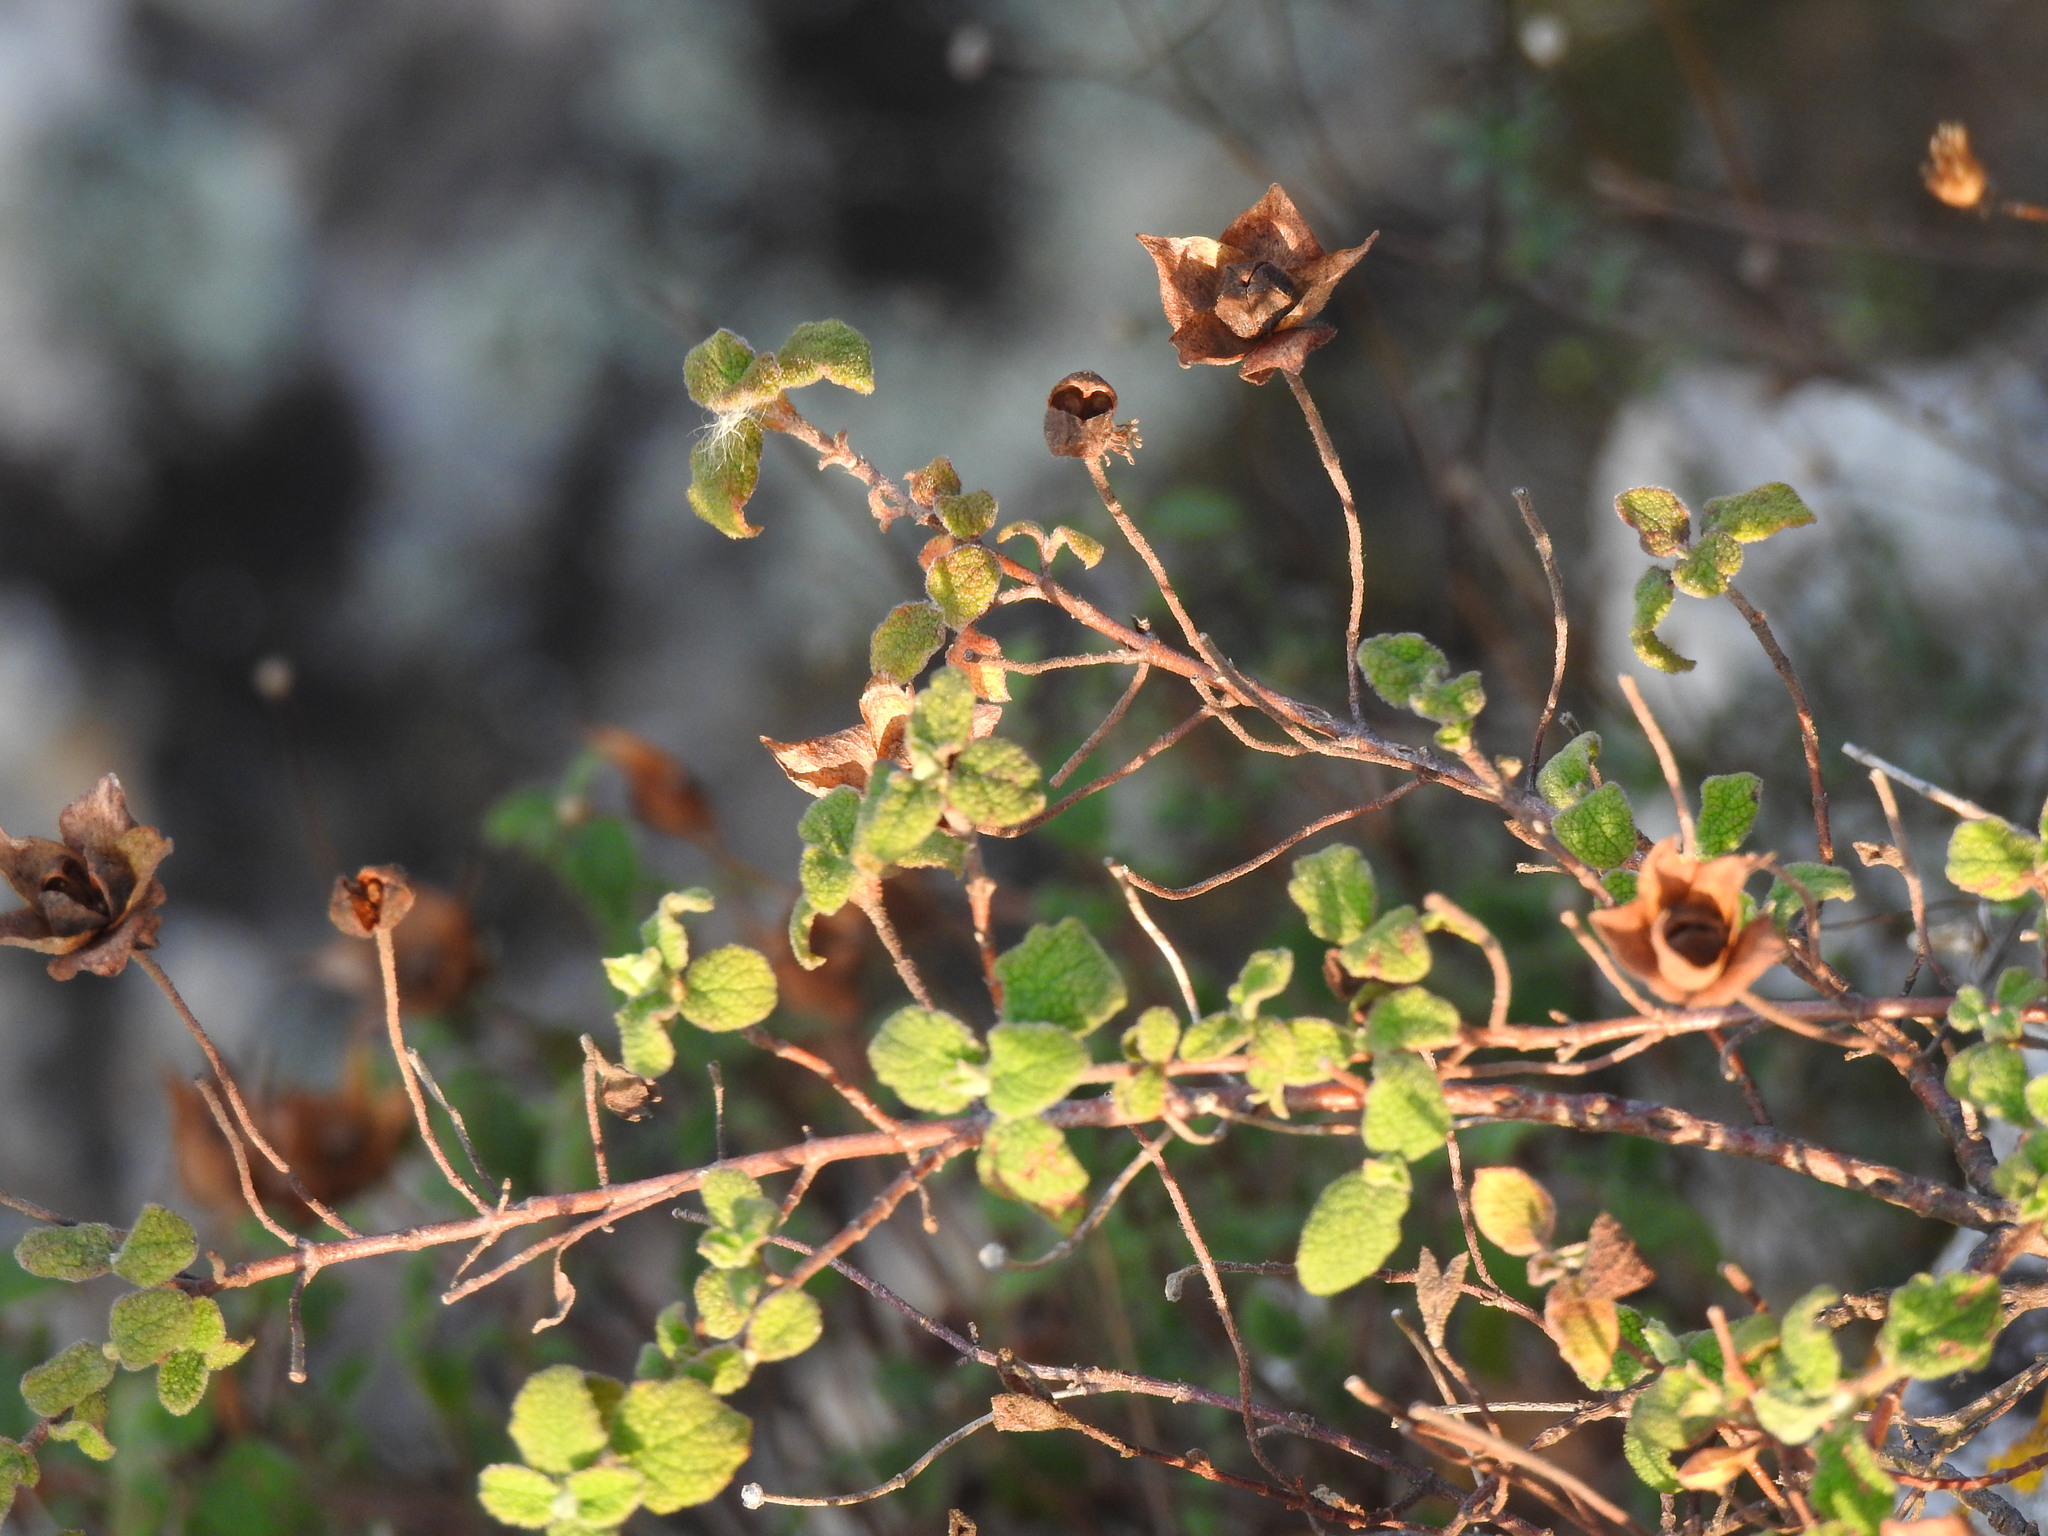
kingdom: Plantae
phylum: Tracheophyta
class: Magnoliopsida
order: Malvales
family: Cistaceae
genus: Cistus
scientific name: Cistus salviifolius
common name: Salvia cistus
